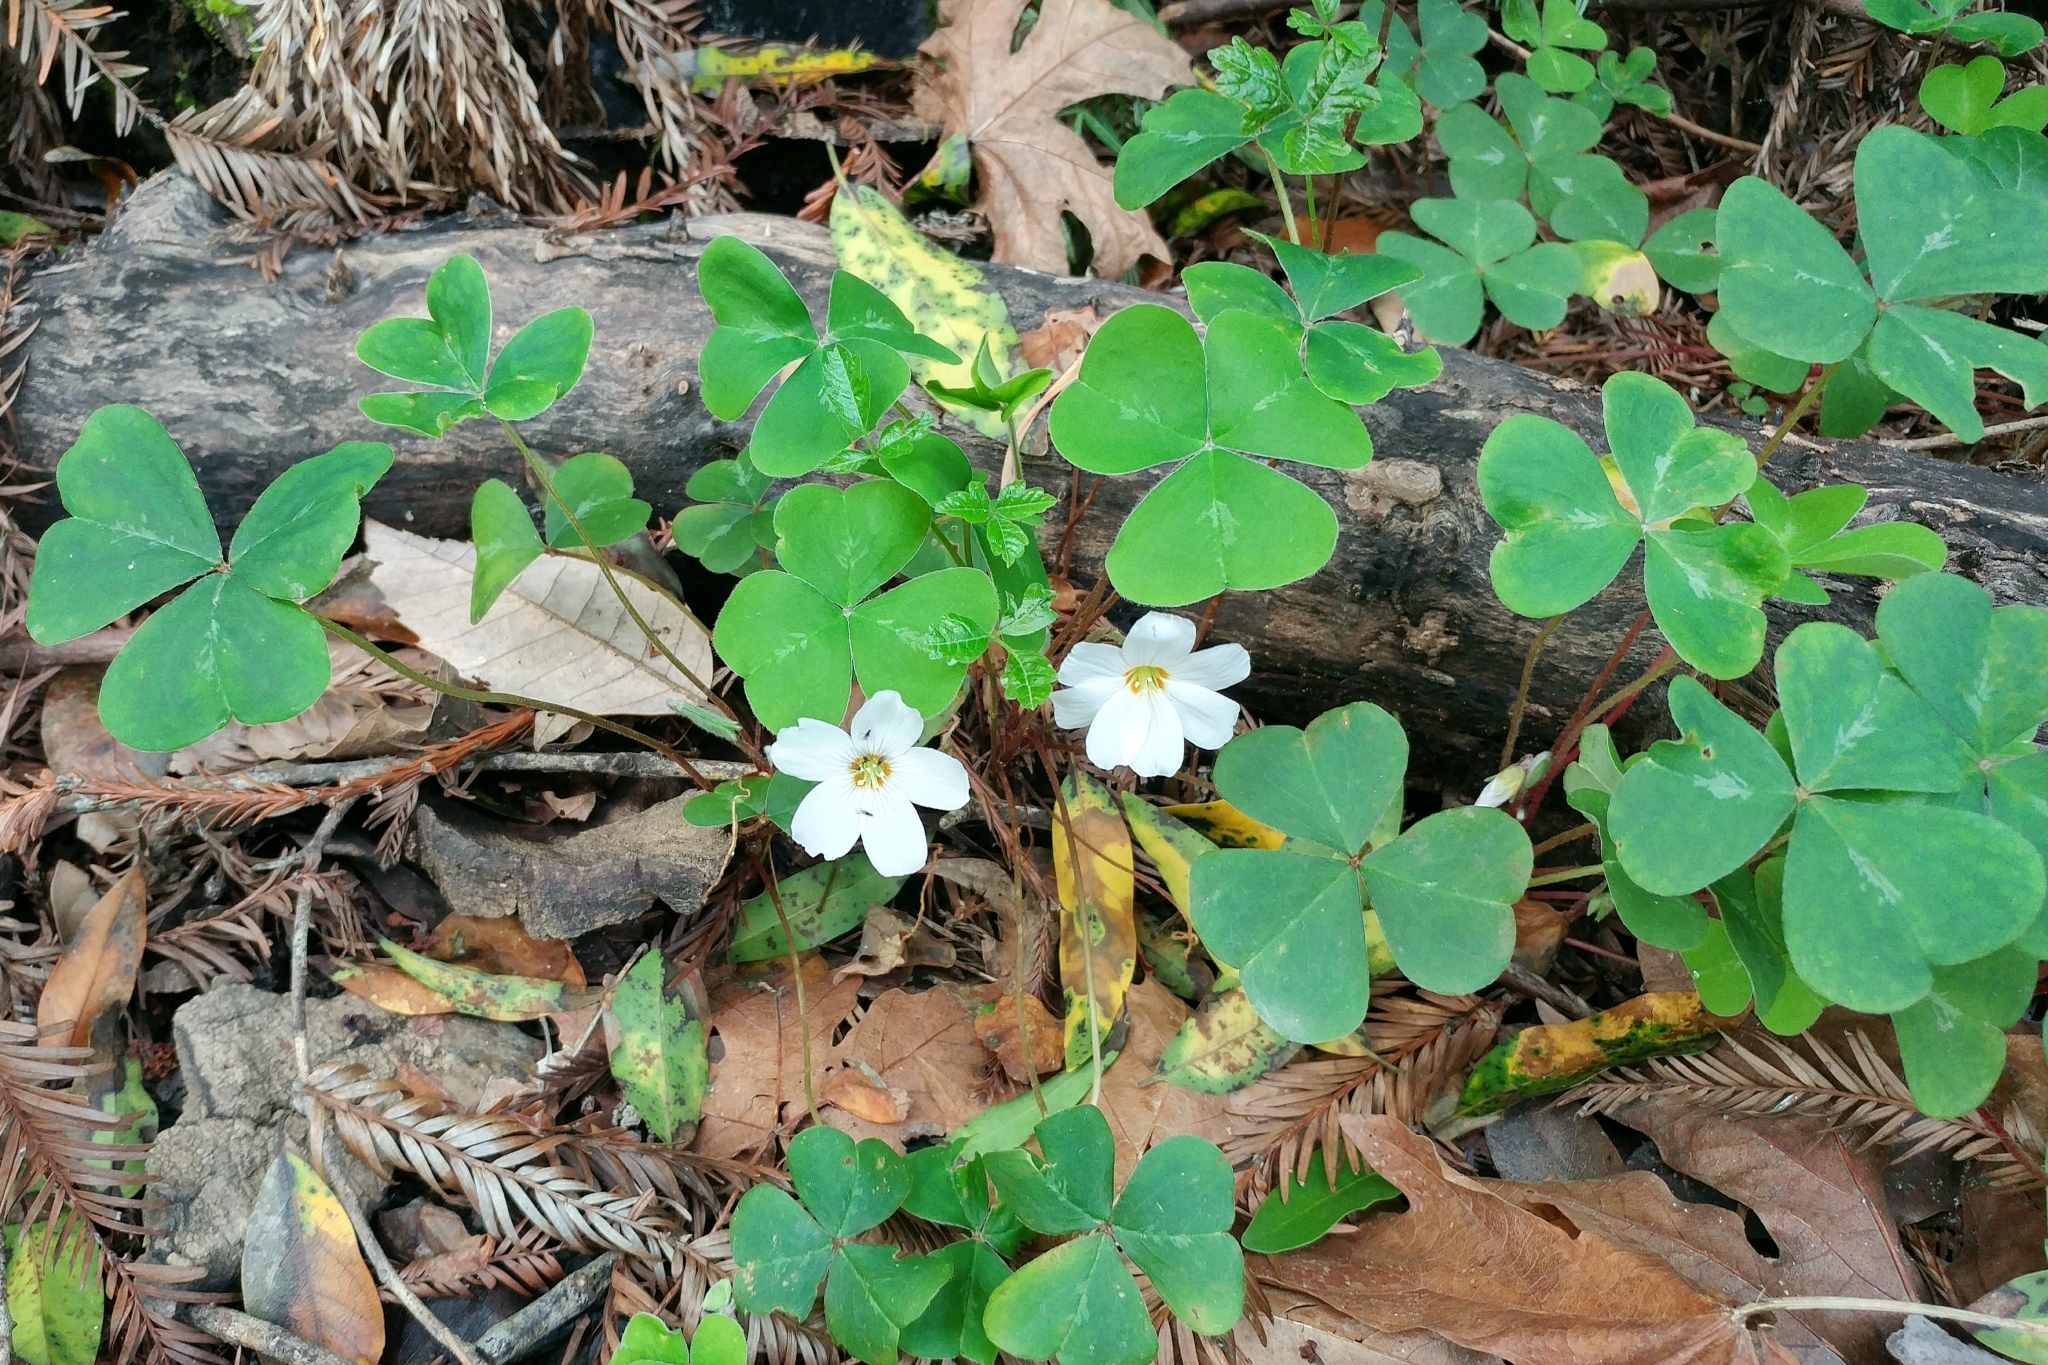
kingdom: Plantae
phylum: Tracheophyta
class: Magnoliopsida
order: Oxalidales
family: Oxalidaceae
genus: Oxalis
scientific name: Oxalis oregana
